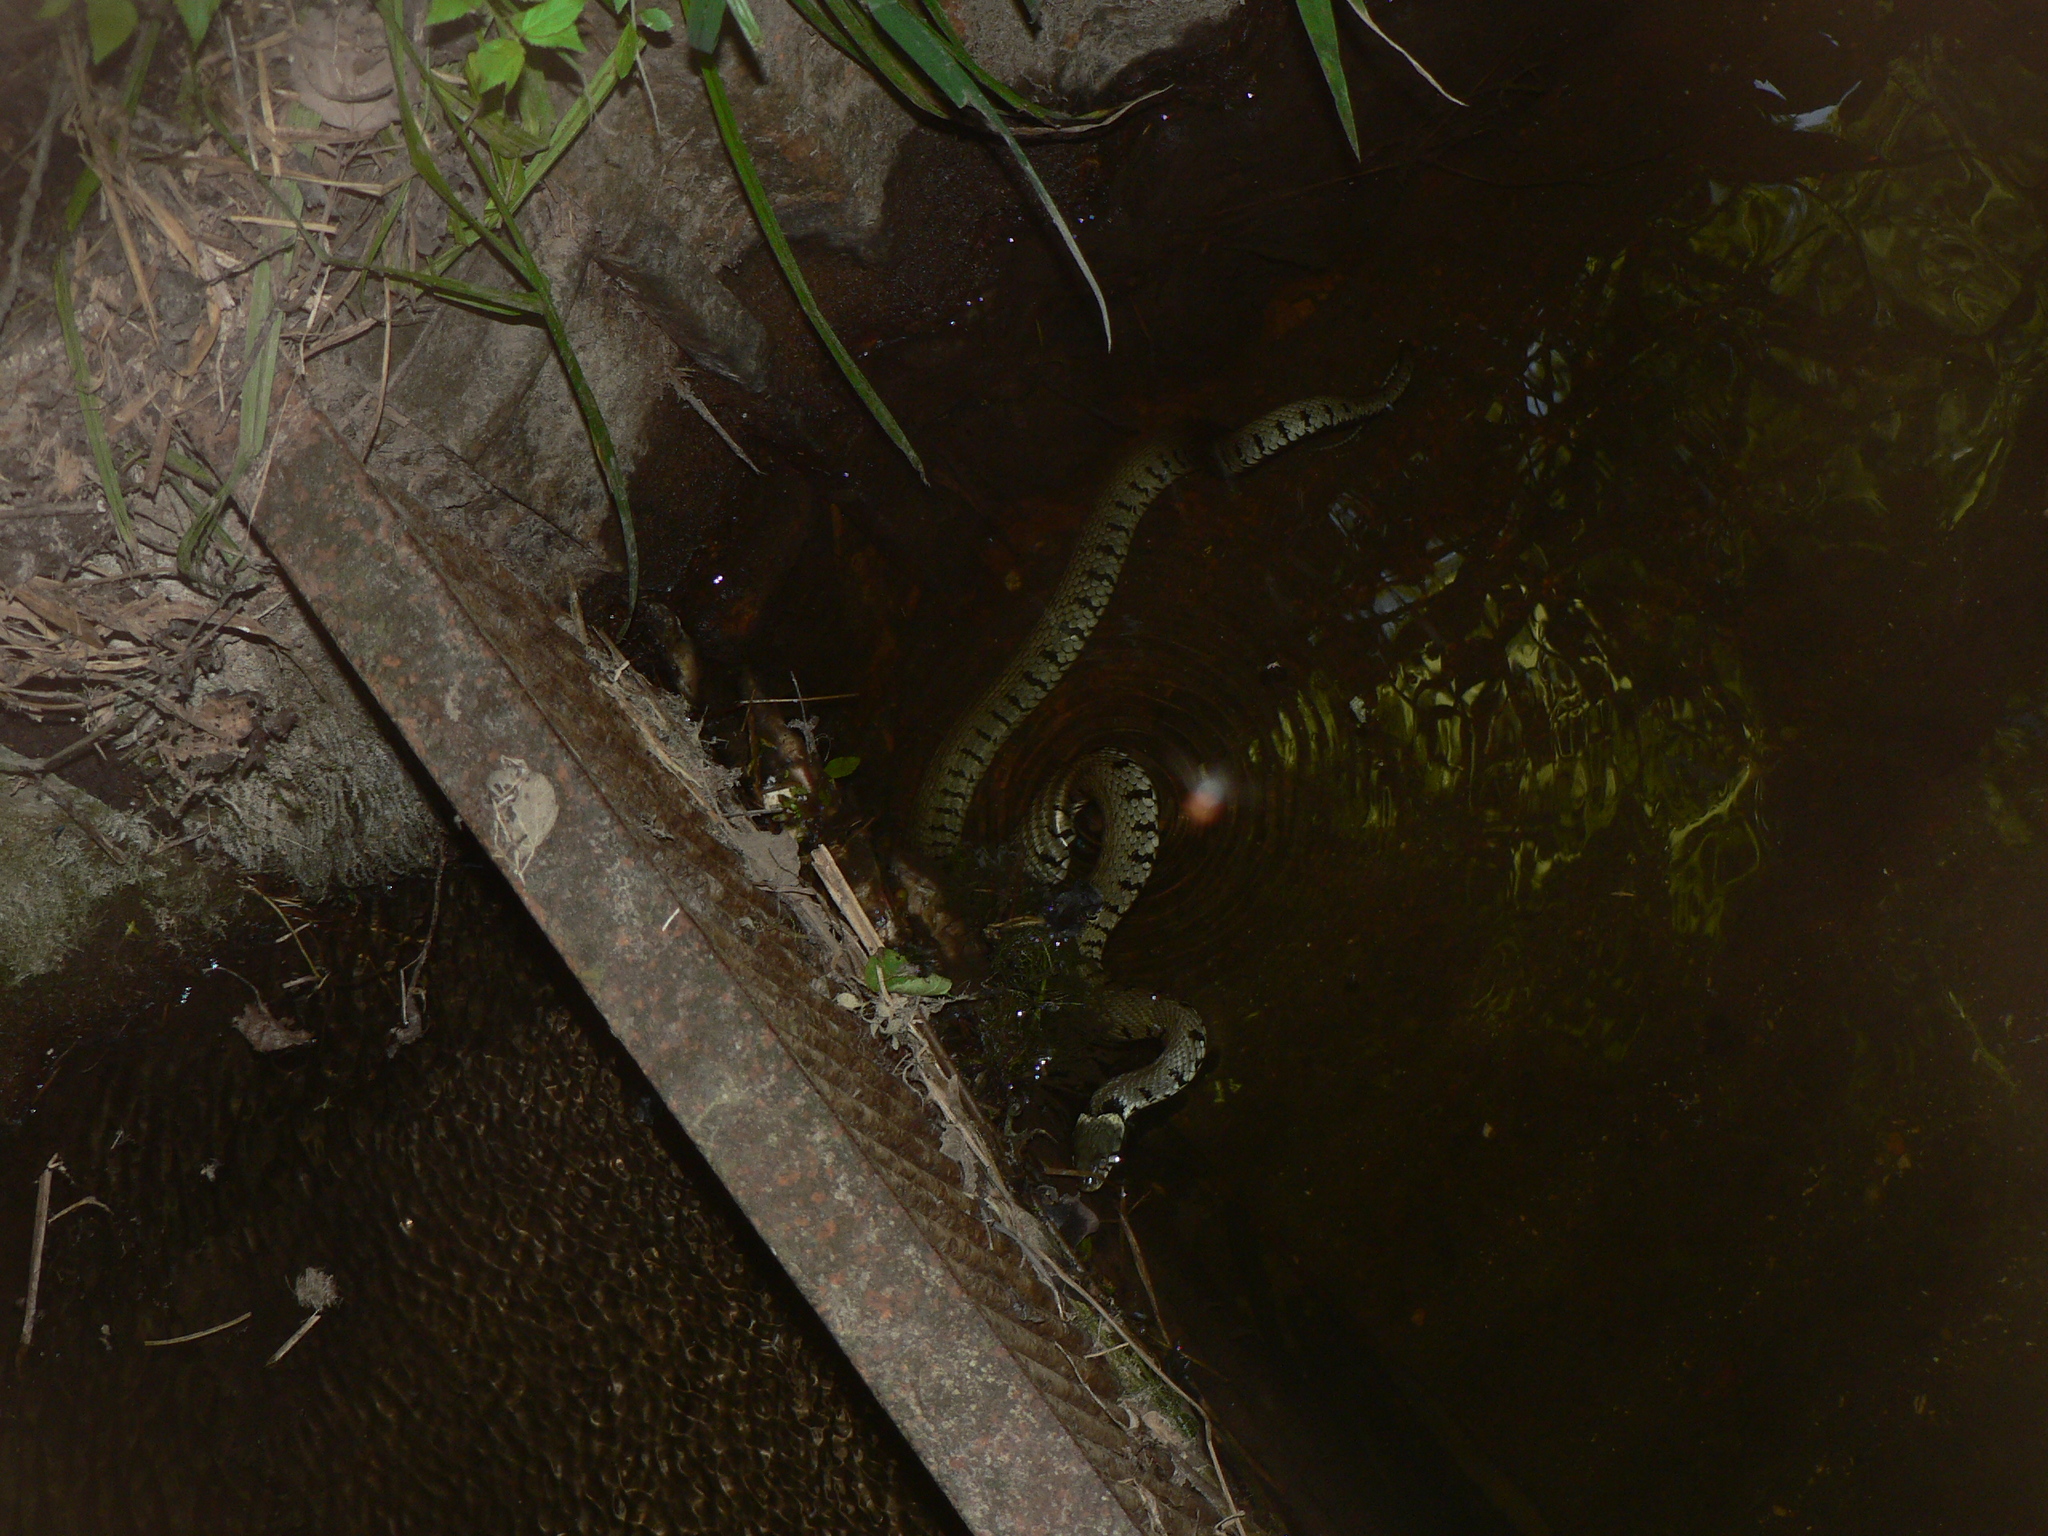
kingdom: Animalia
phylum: Chordata
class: Squamata
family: Colubridae
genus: Natrix
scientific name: Natrix helvetica
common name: Banded grass snake
